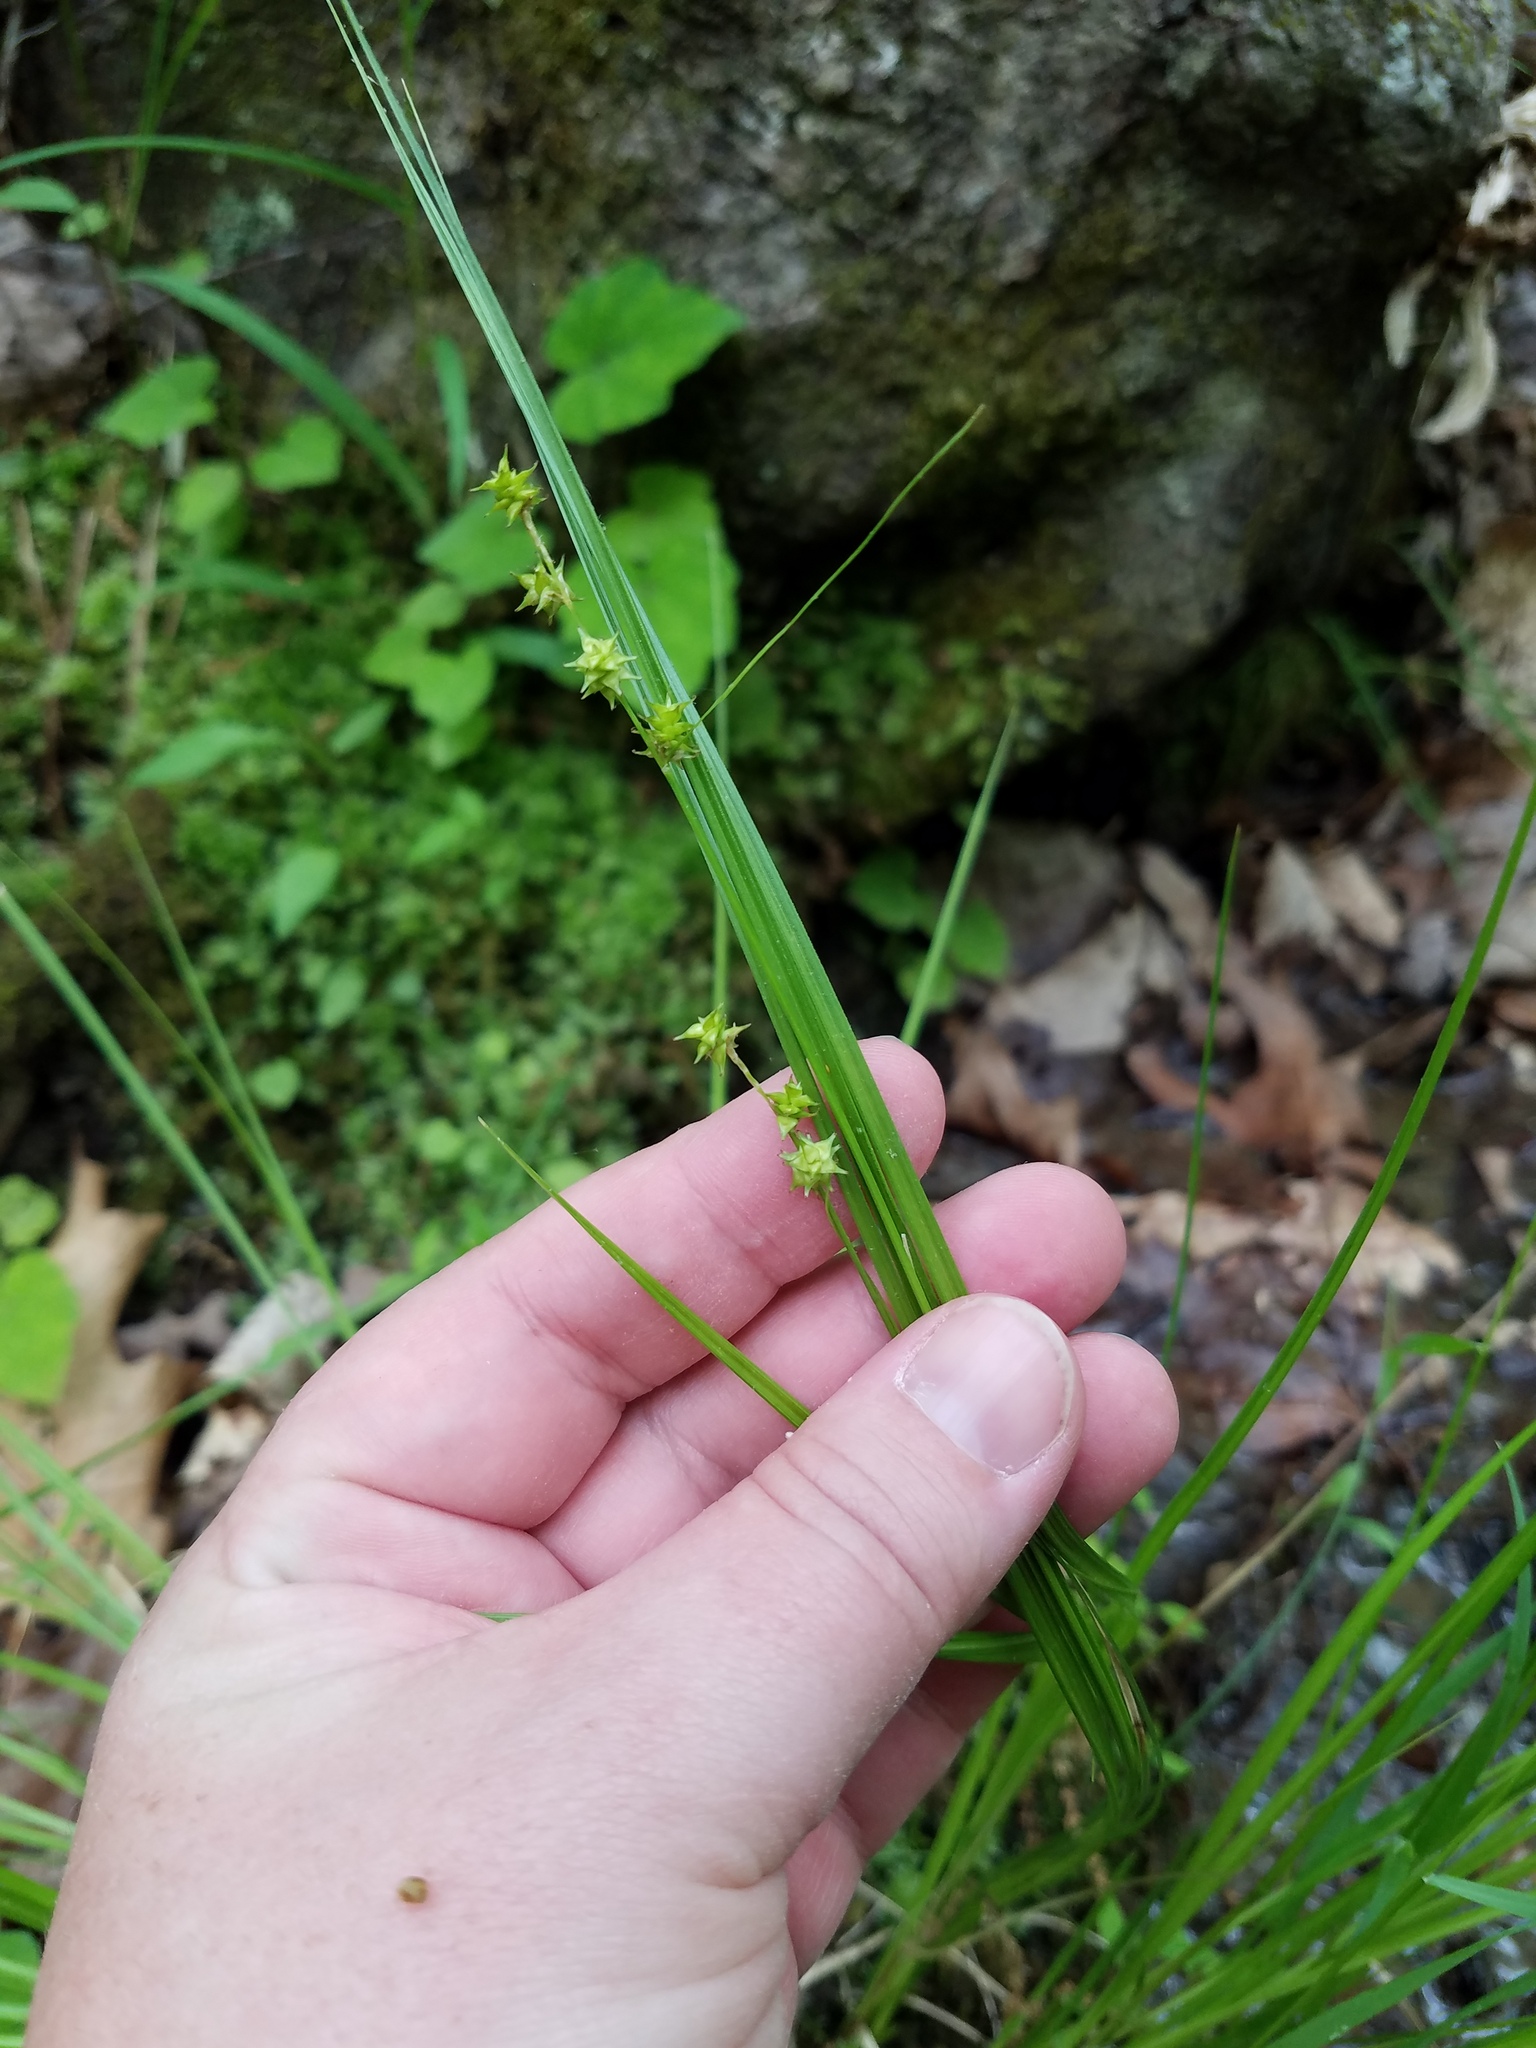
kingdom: Plantae
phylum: Tracheophyta
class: Liliopsida
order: Poales
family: Cyperaceae
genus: Carex
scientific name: Carex atlantica
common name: Atlantic sedge
